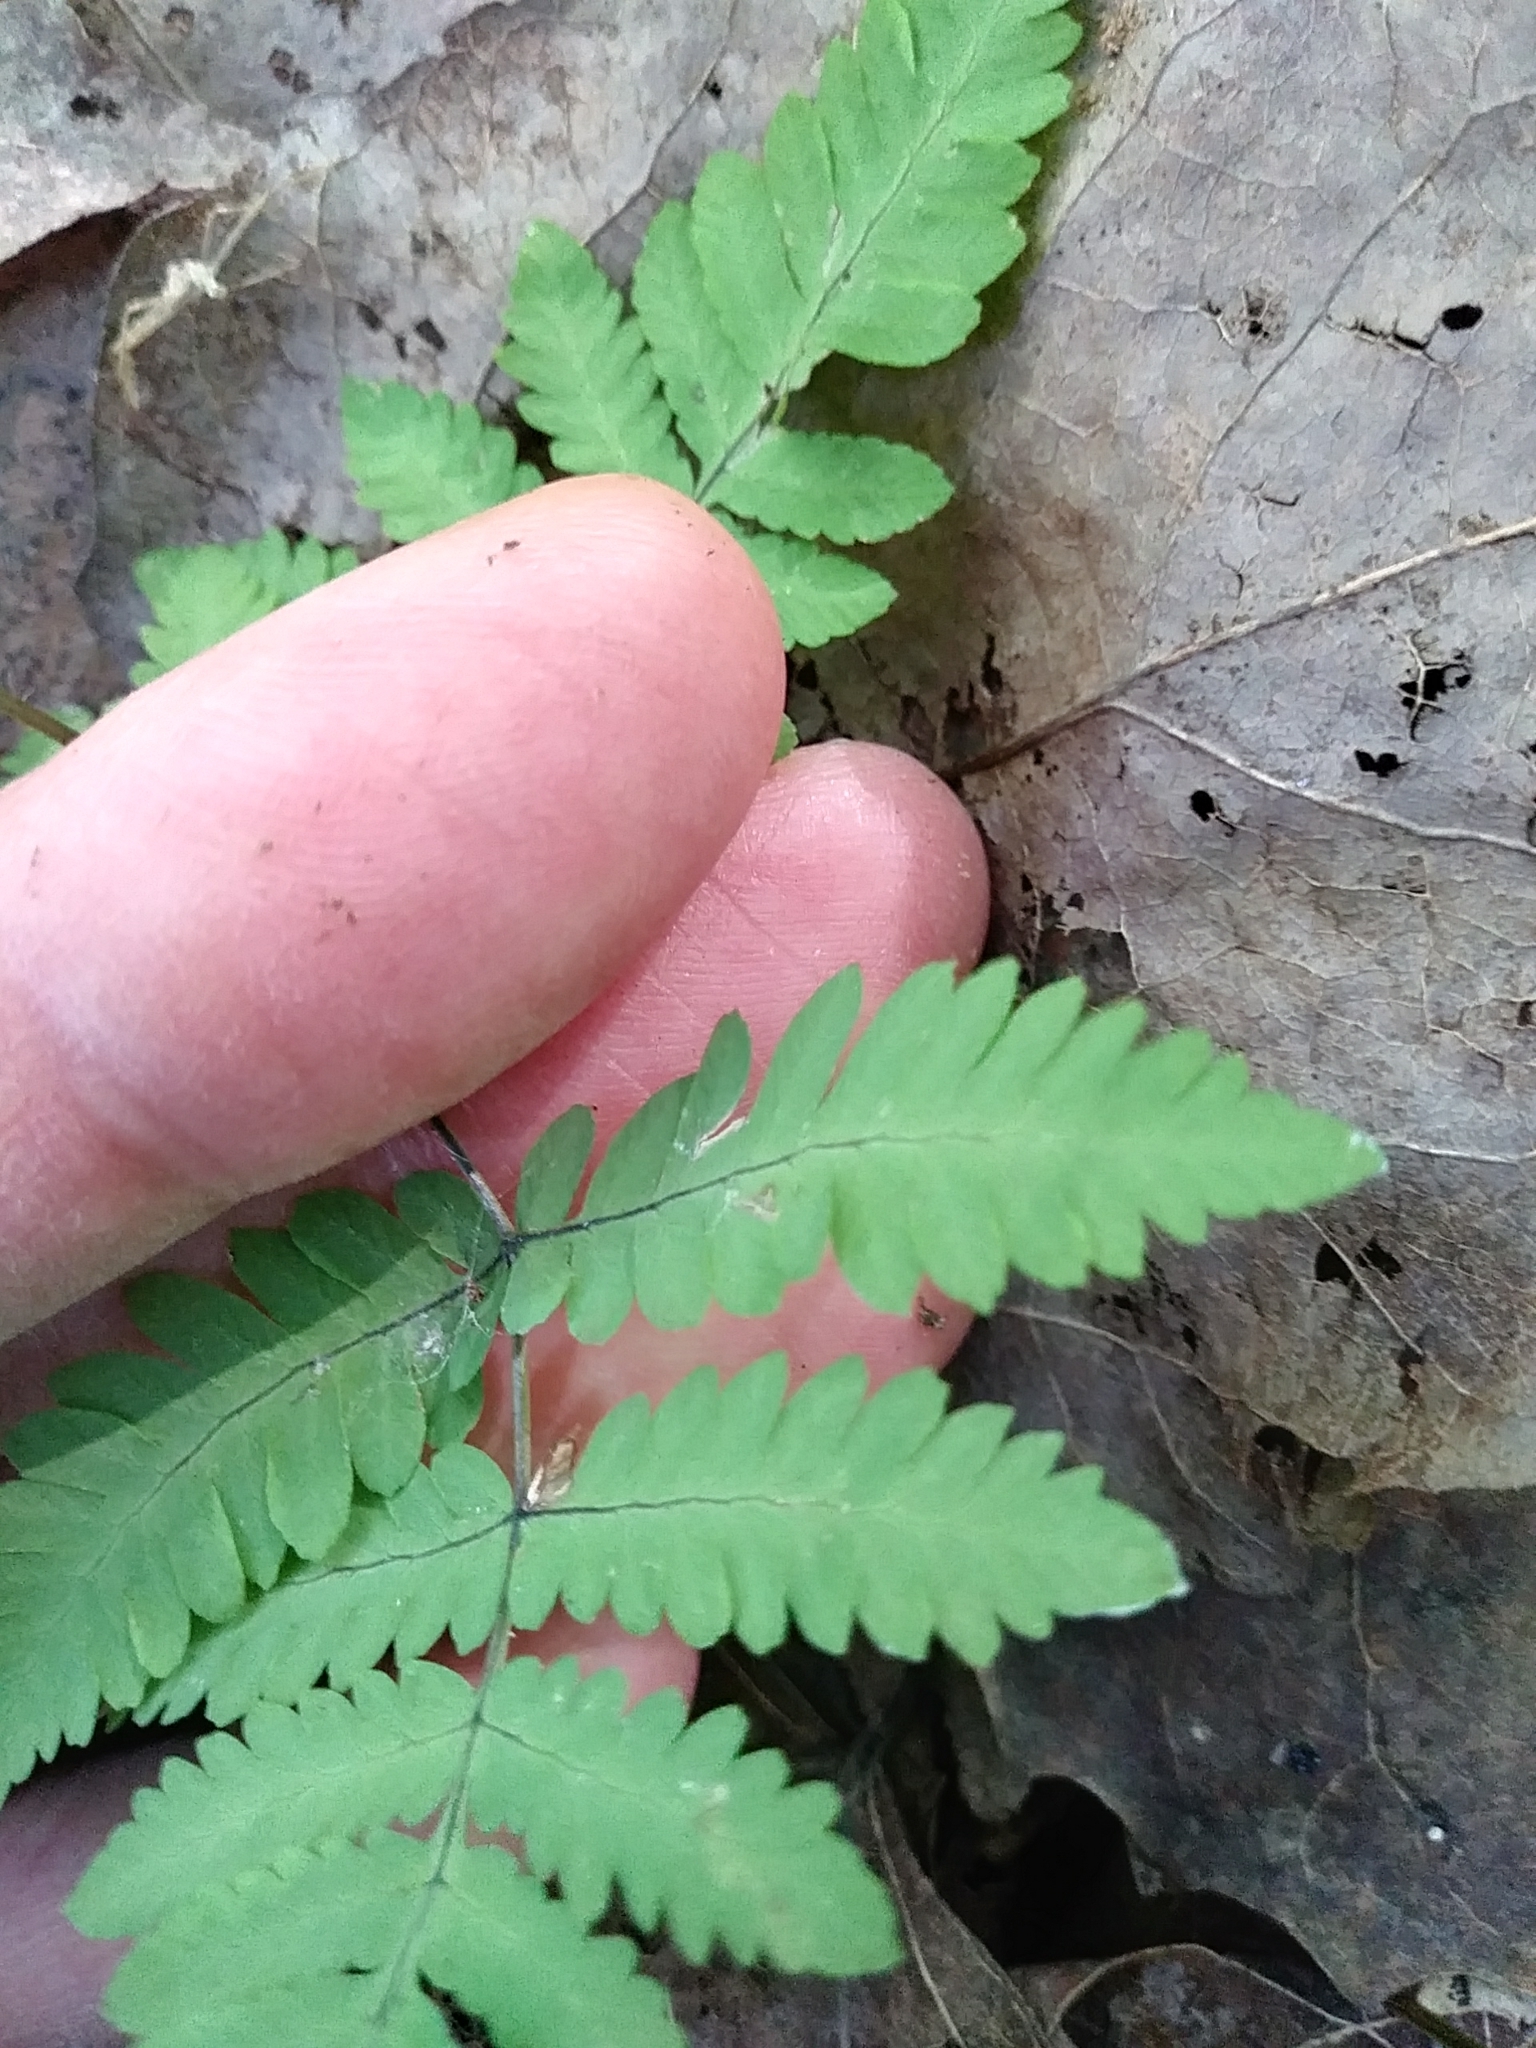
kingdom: Plantae
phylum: Tracheophyta
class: Polypodiopsida
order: Polypodiales
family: Cystopteridaceae
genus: Gymnocarpium
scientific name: Gymnocarpium dryopteris
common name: Oak fern
